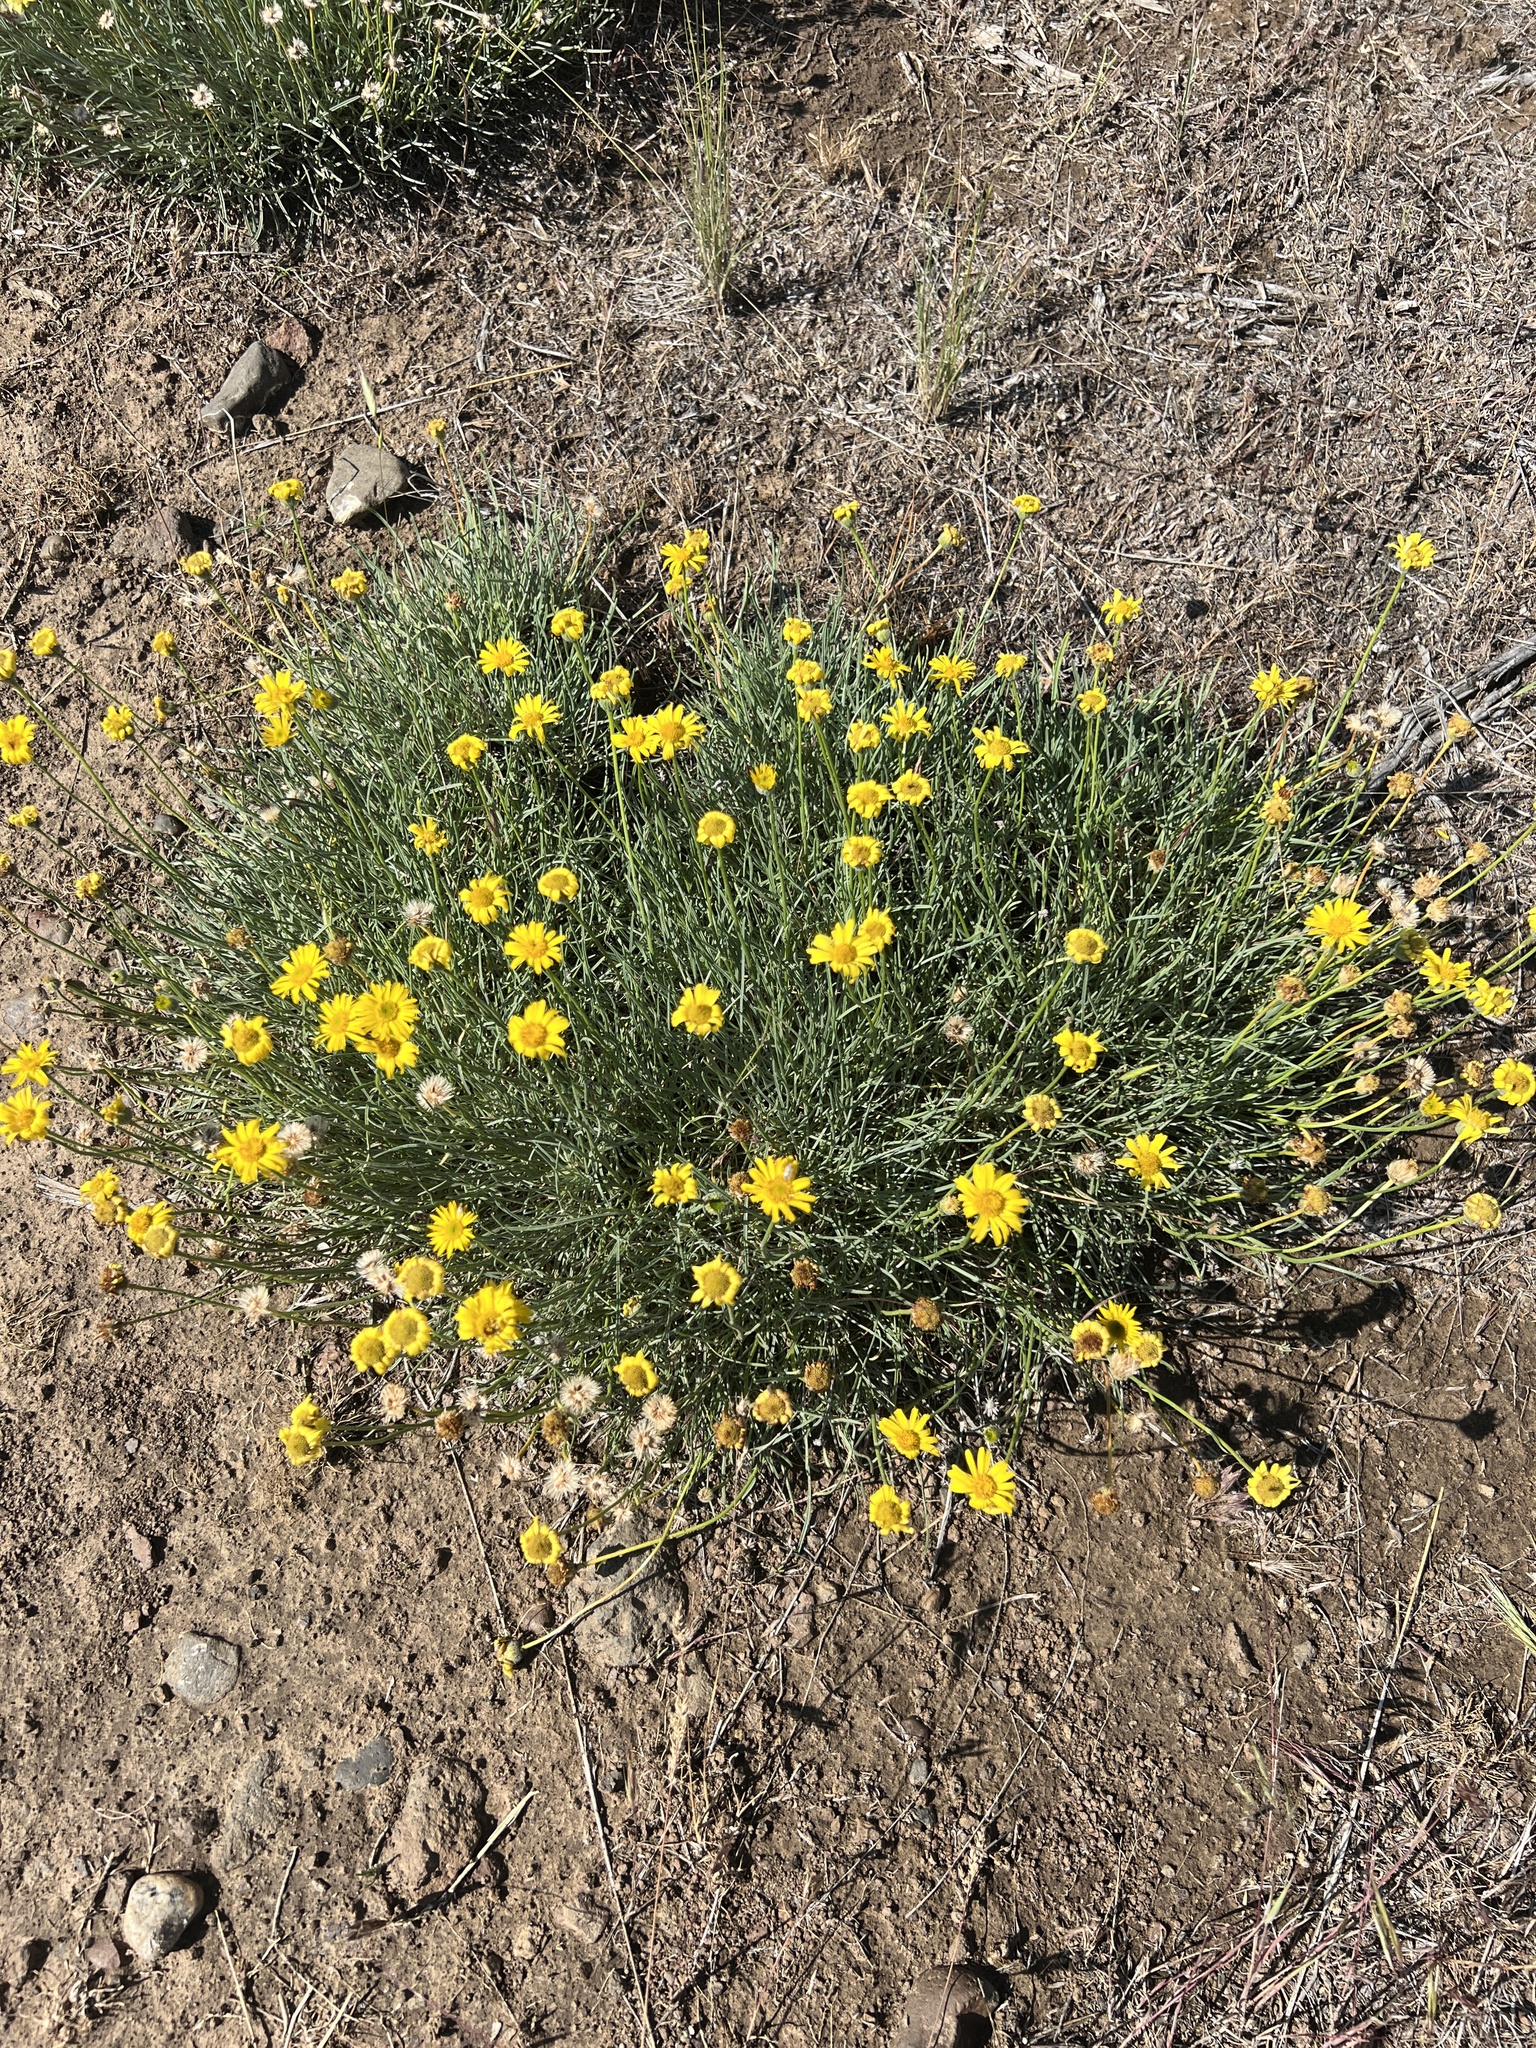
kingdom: Plantae
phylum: Tracheophyta
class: Magnoliopsida
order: Asterales
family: Asteraceae
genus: Erigeron
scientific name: Erigeron linearis
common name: Desert yellow fleabane
